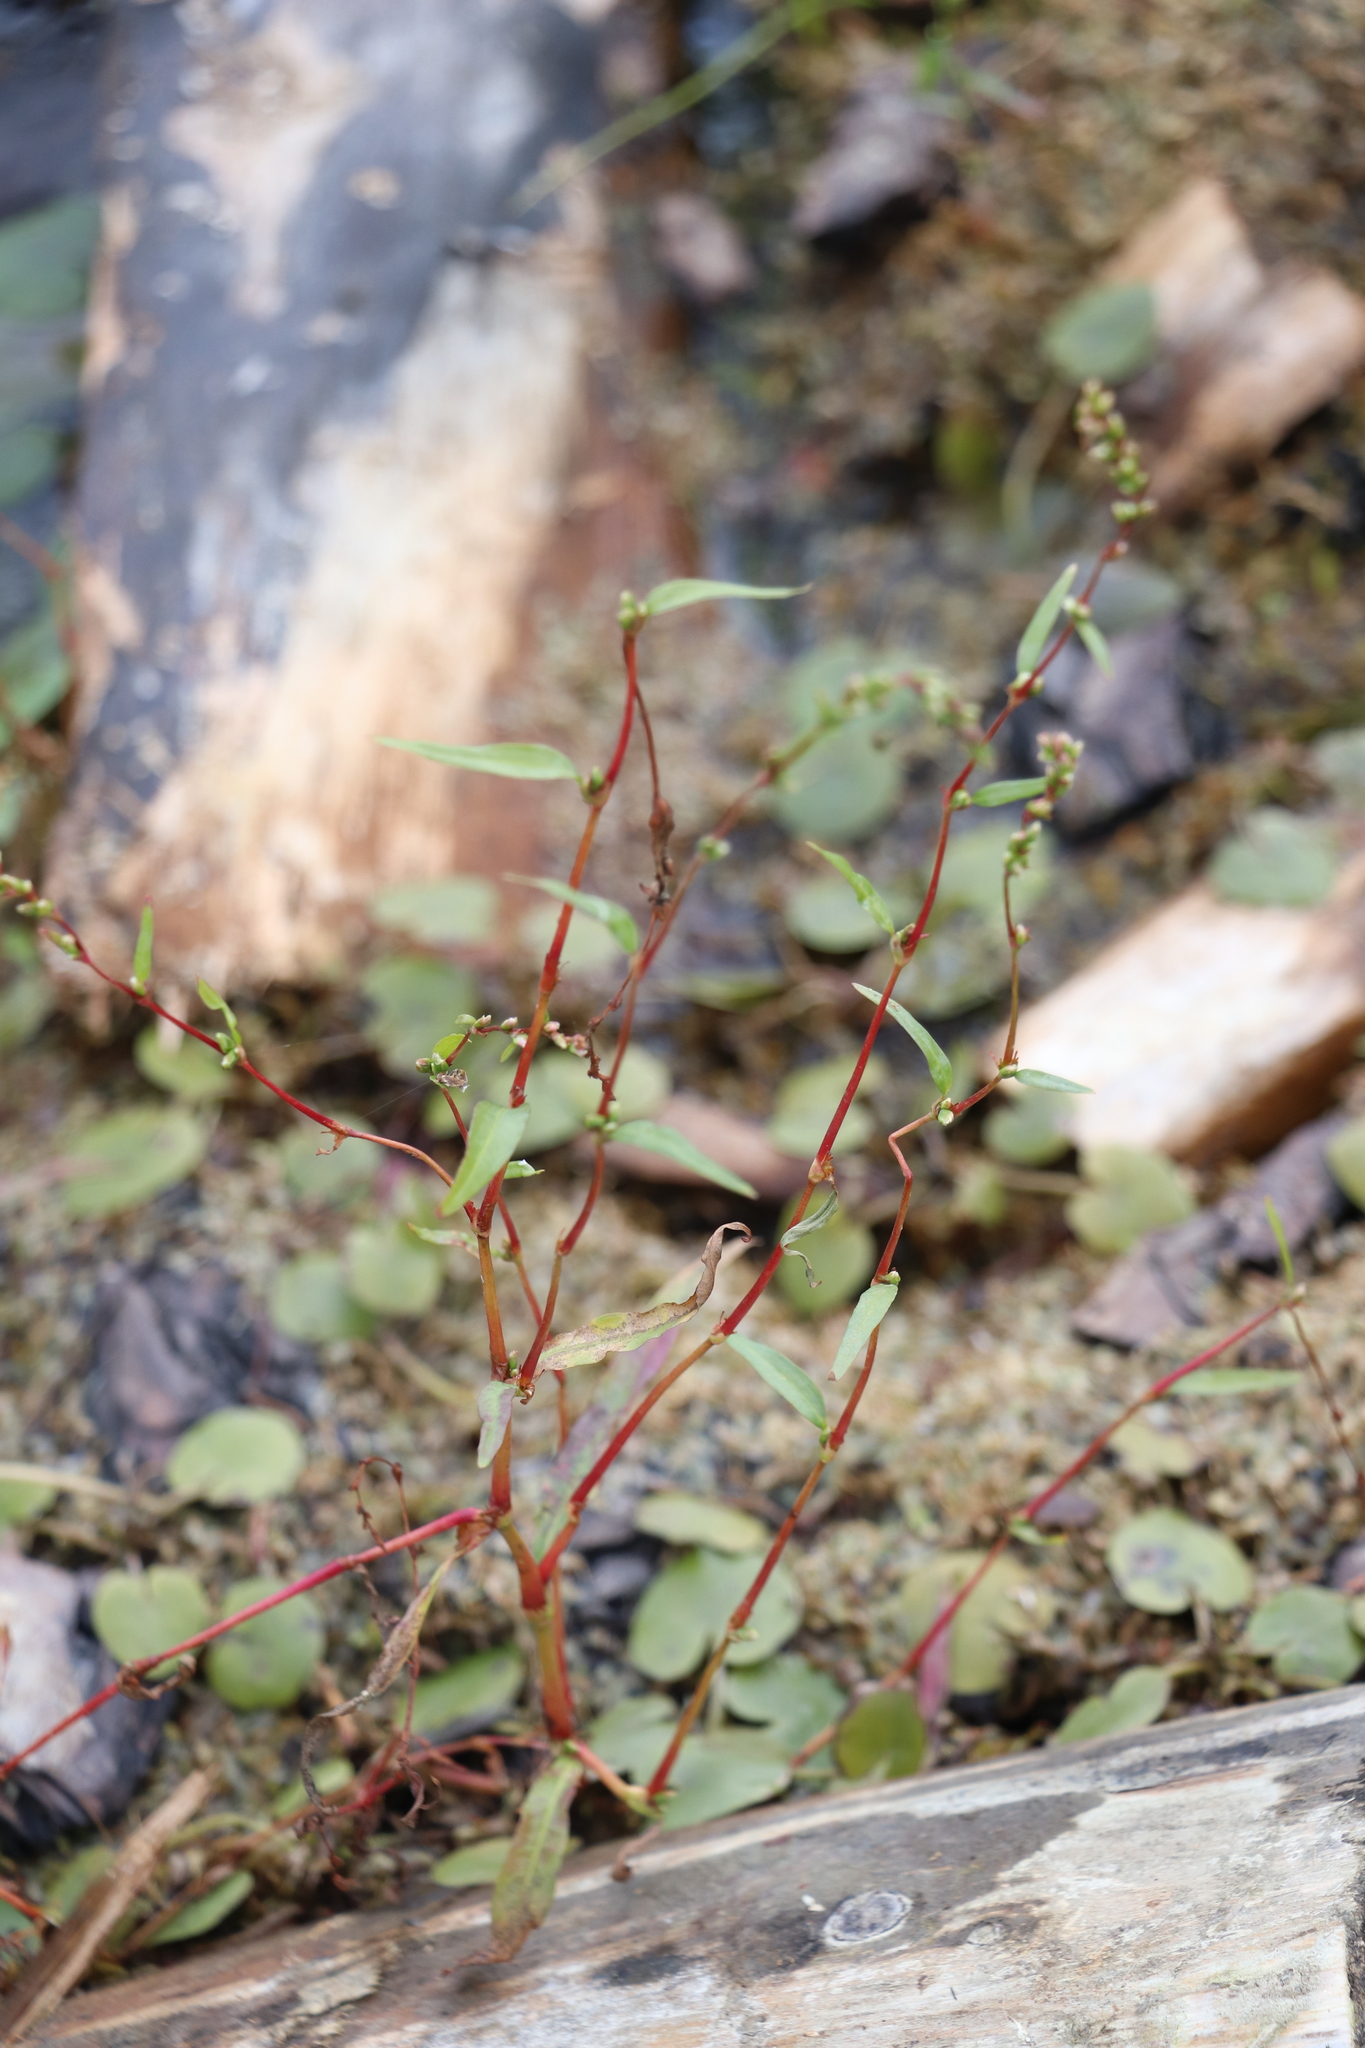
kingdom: Plantae
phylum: Tracheophyta
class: Magnoliopsida
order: Caryophyllales
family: Polygonaceae
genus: Persicaria
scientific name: Persicaria hydropiper
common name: Water-pepper
